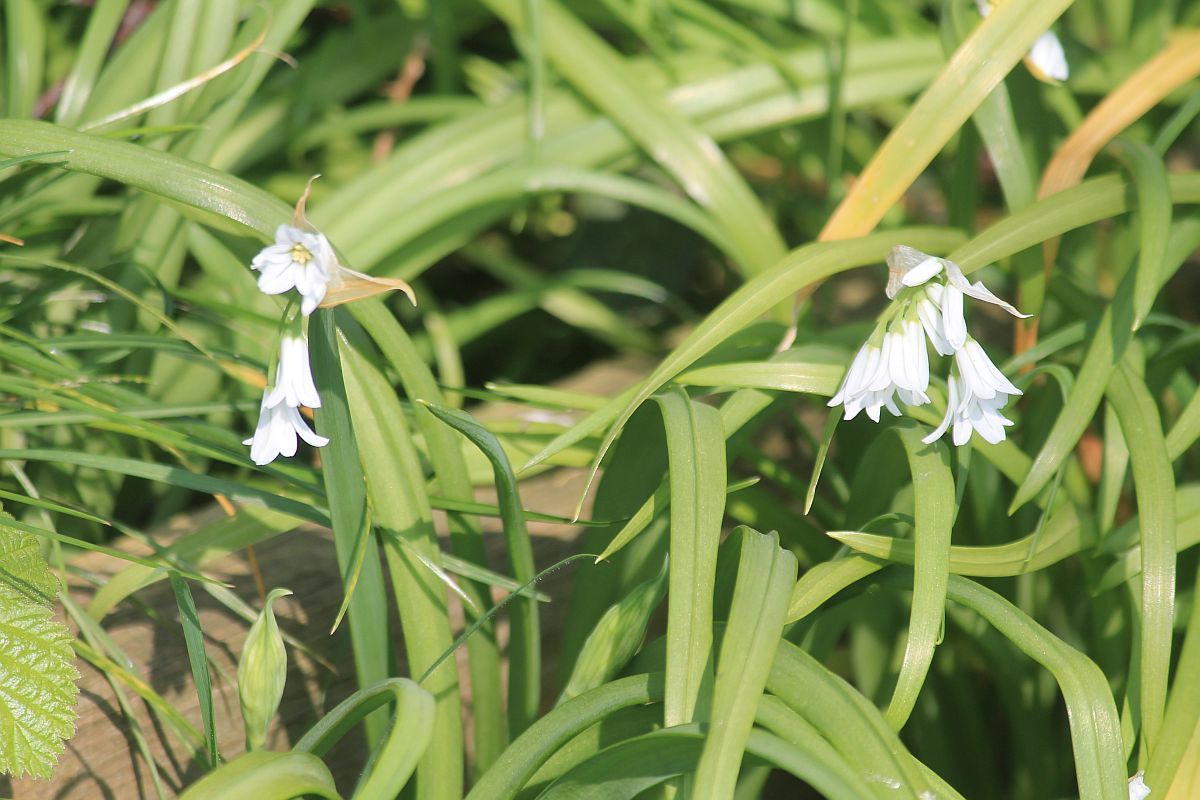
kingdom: Plantae
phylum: Tracheophyta
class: Liliopsida
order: Asparagales
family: Amaryllidaceae
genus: Allium
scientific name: Allium triquetrum
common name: Three-cornered garlic
